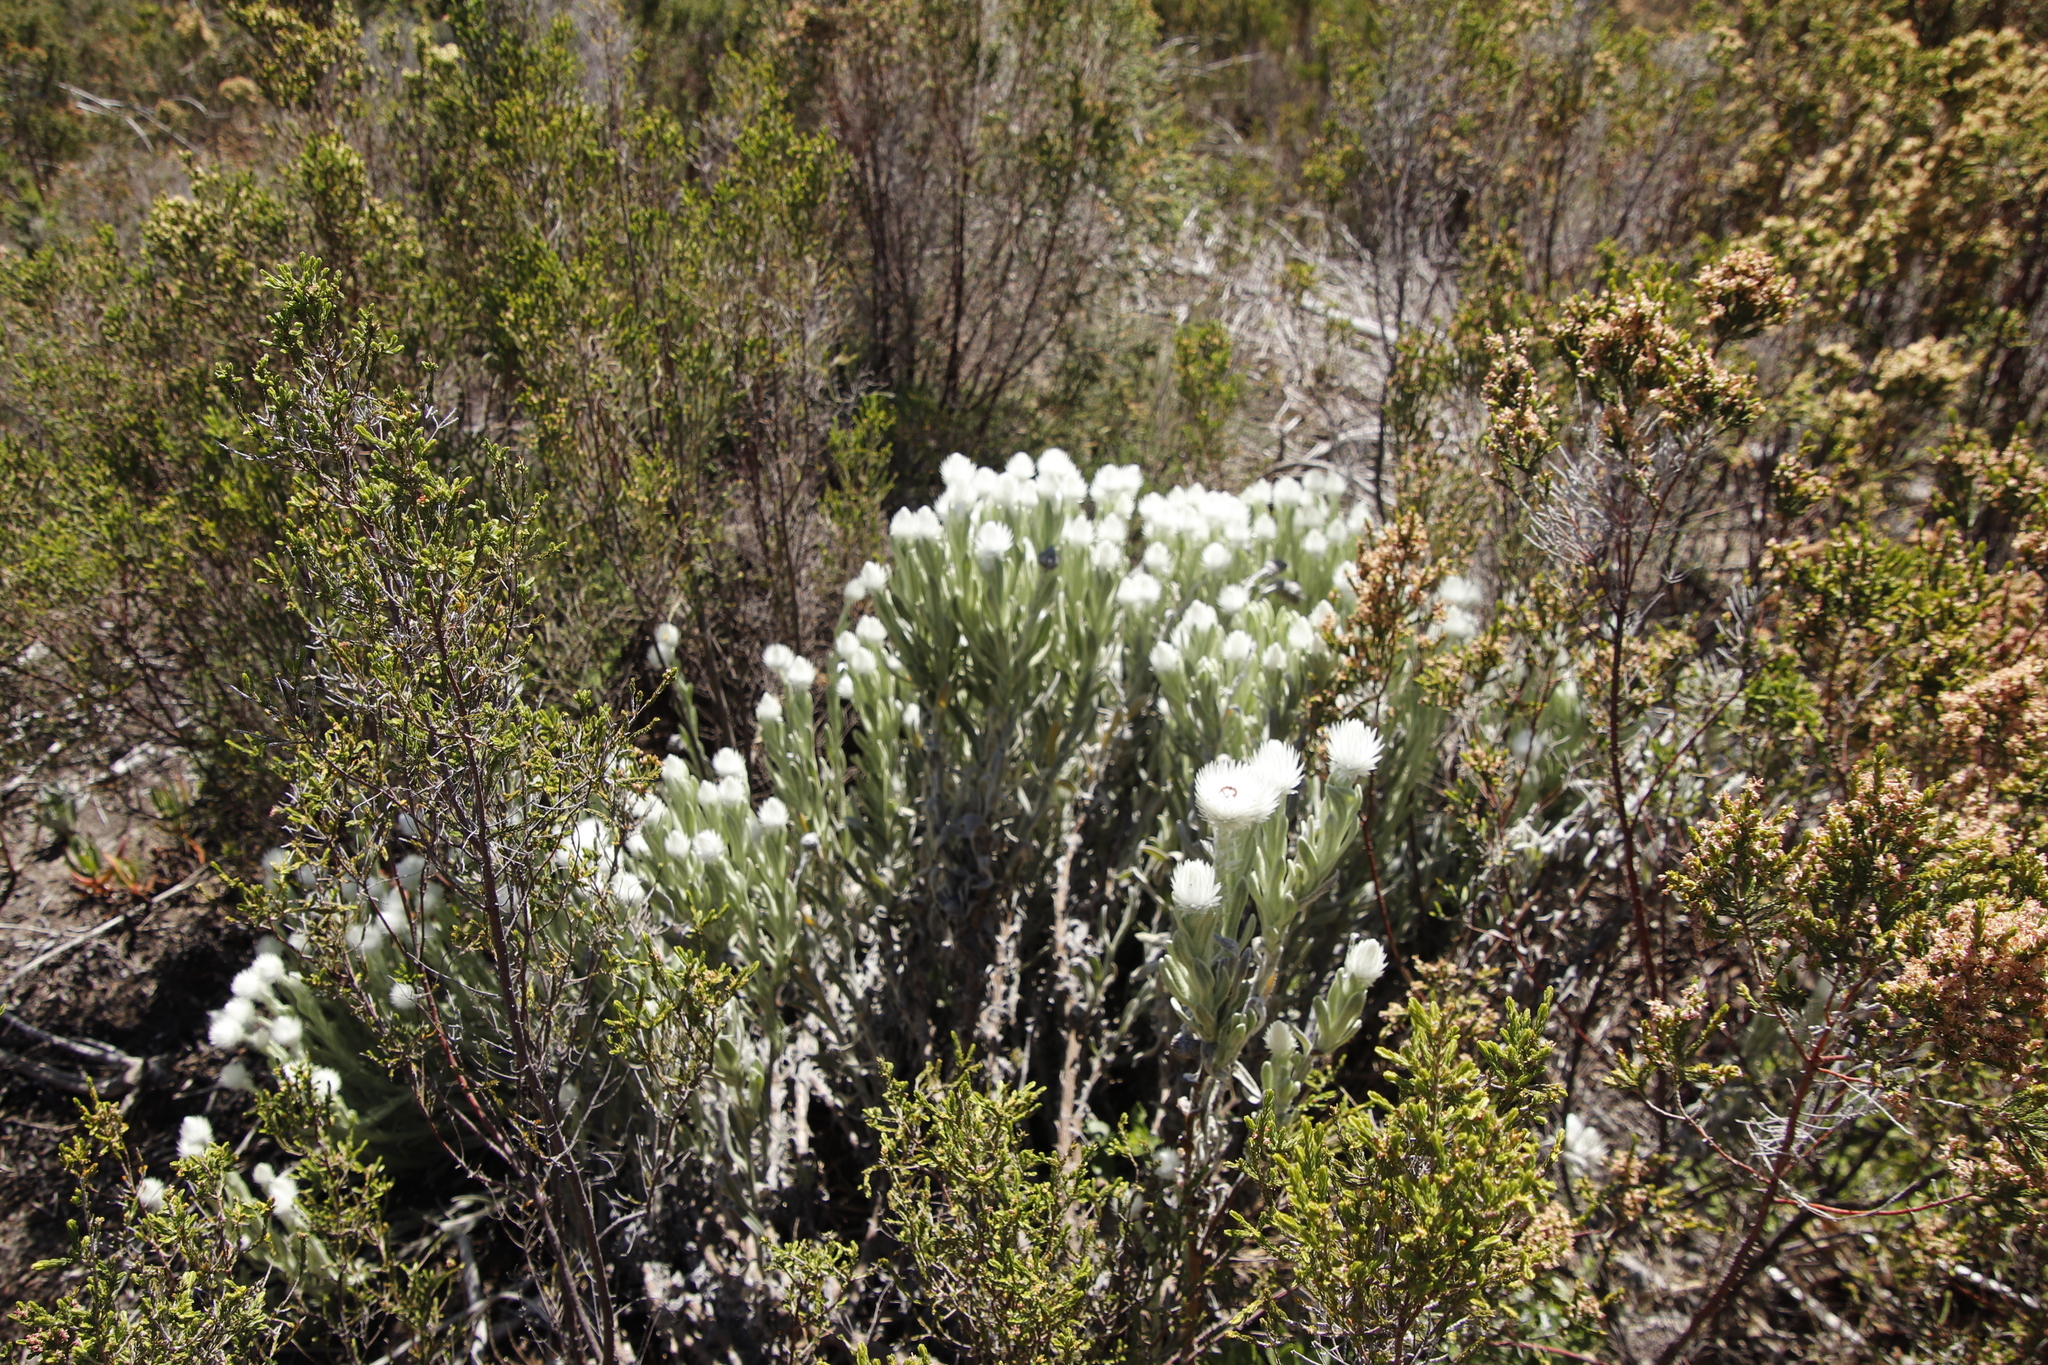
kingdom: Plantae
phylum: Tracheophyta
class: Magnoliopsida
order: Asterales
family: Asteraceae
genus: Syncarpha
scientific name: Syncarpha vestita
